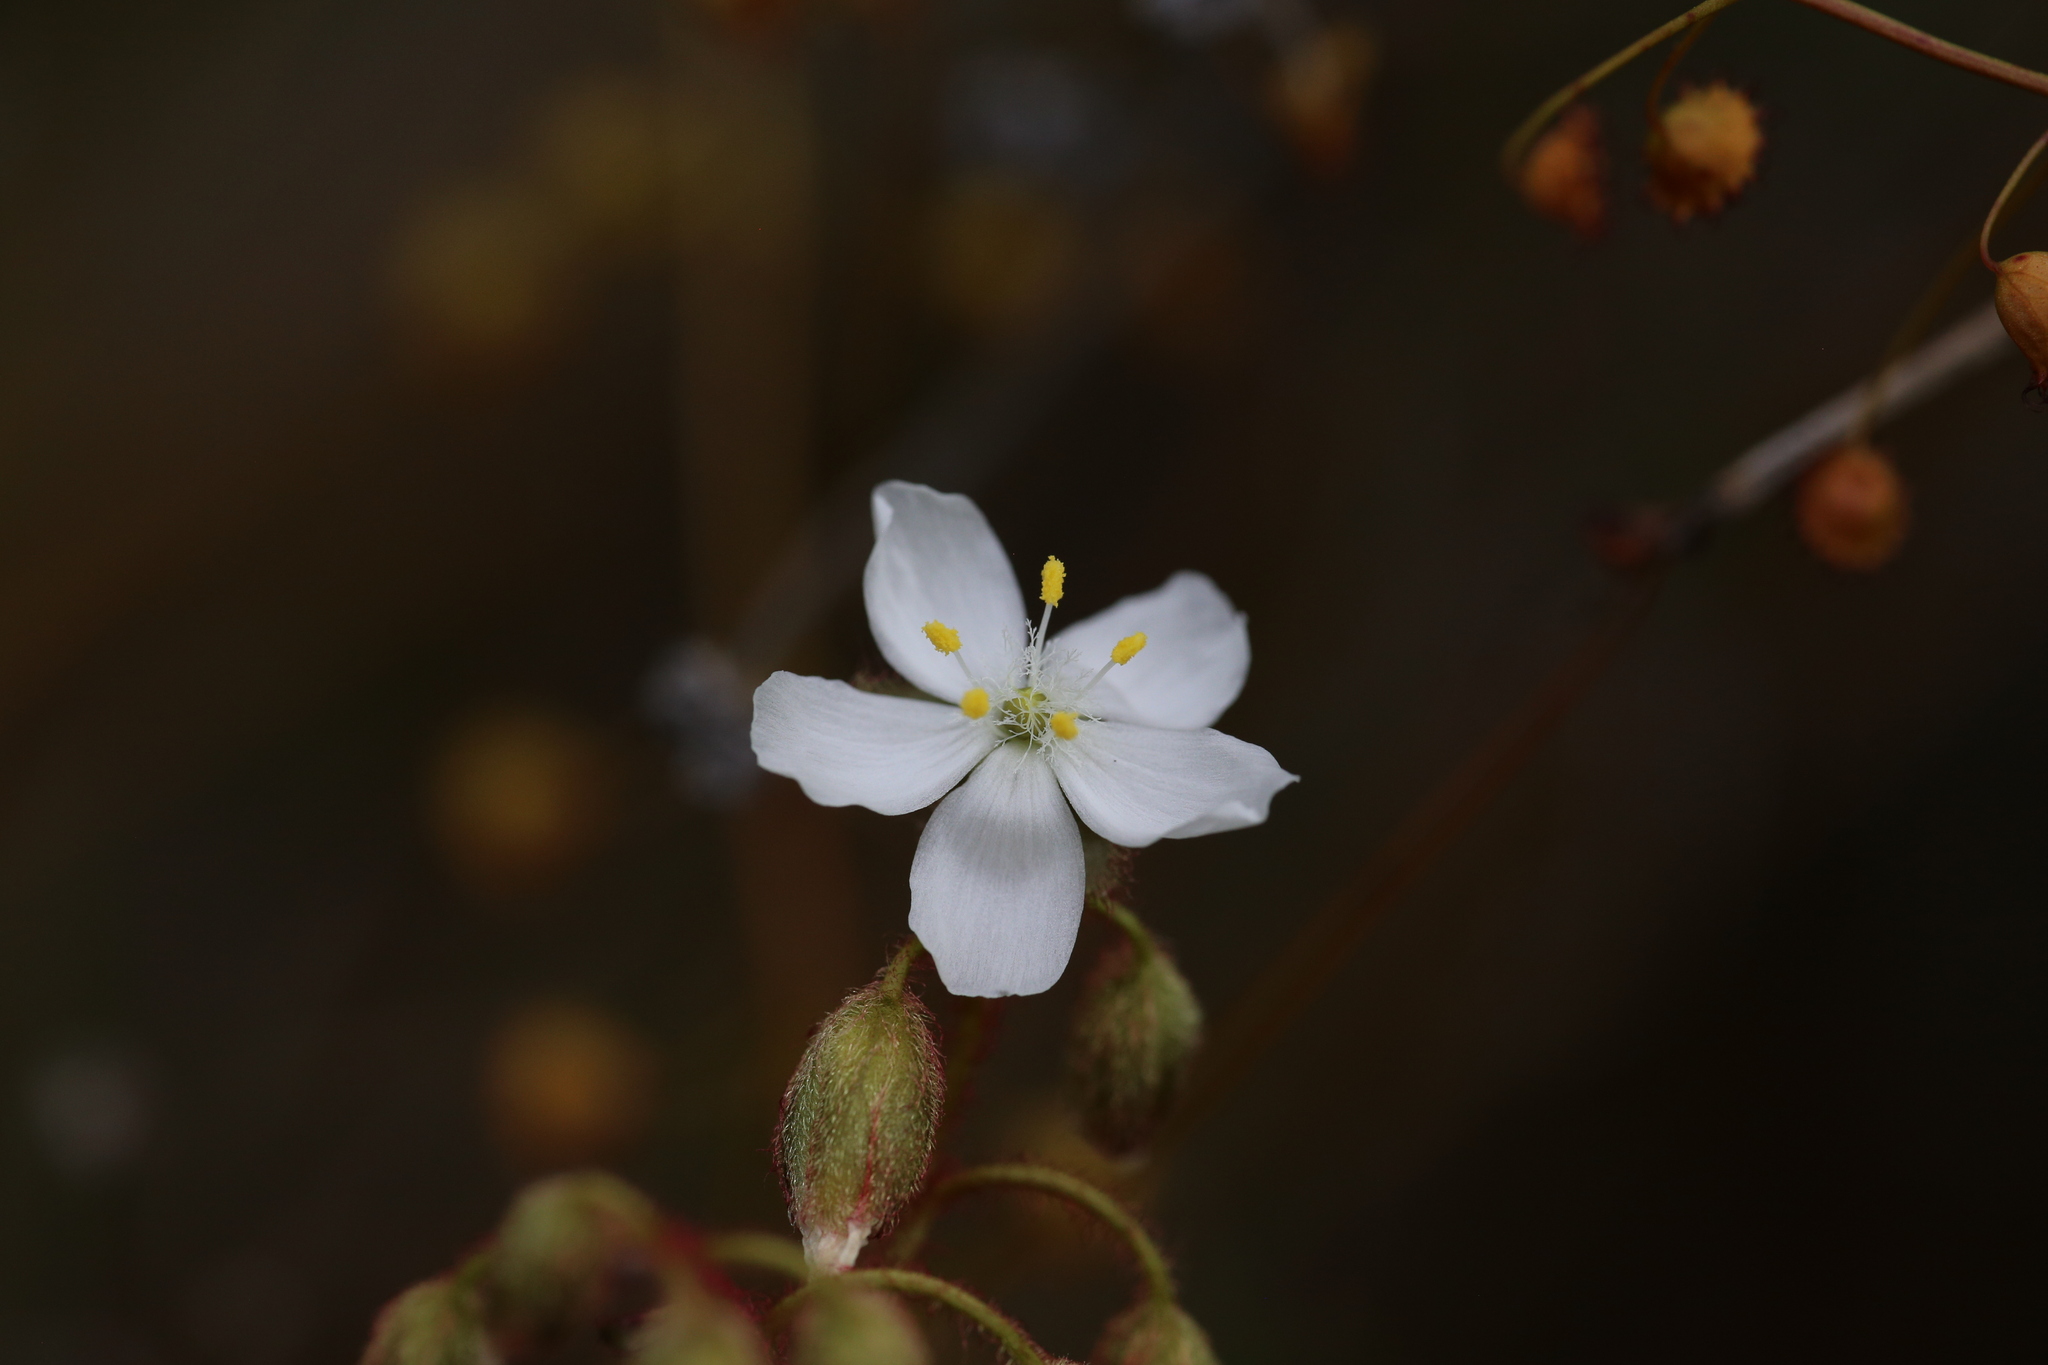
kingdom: Plantae
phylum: Tracheophyta
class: Magnoliopsida
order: Caryophyllales
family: Droseraceae
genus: Drosera
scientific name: Drosera hirsuta
